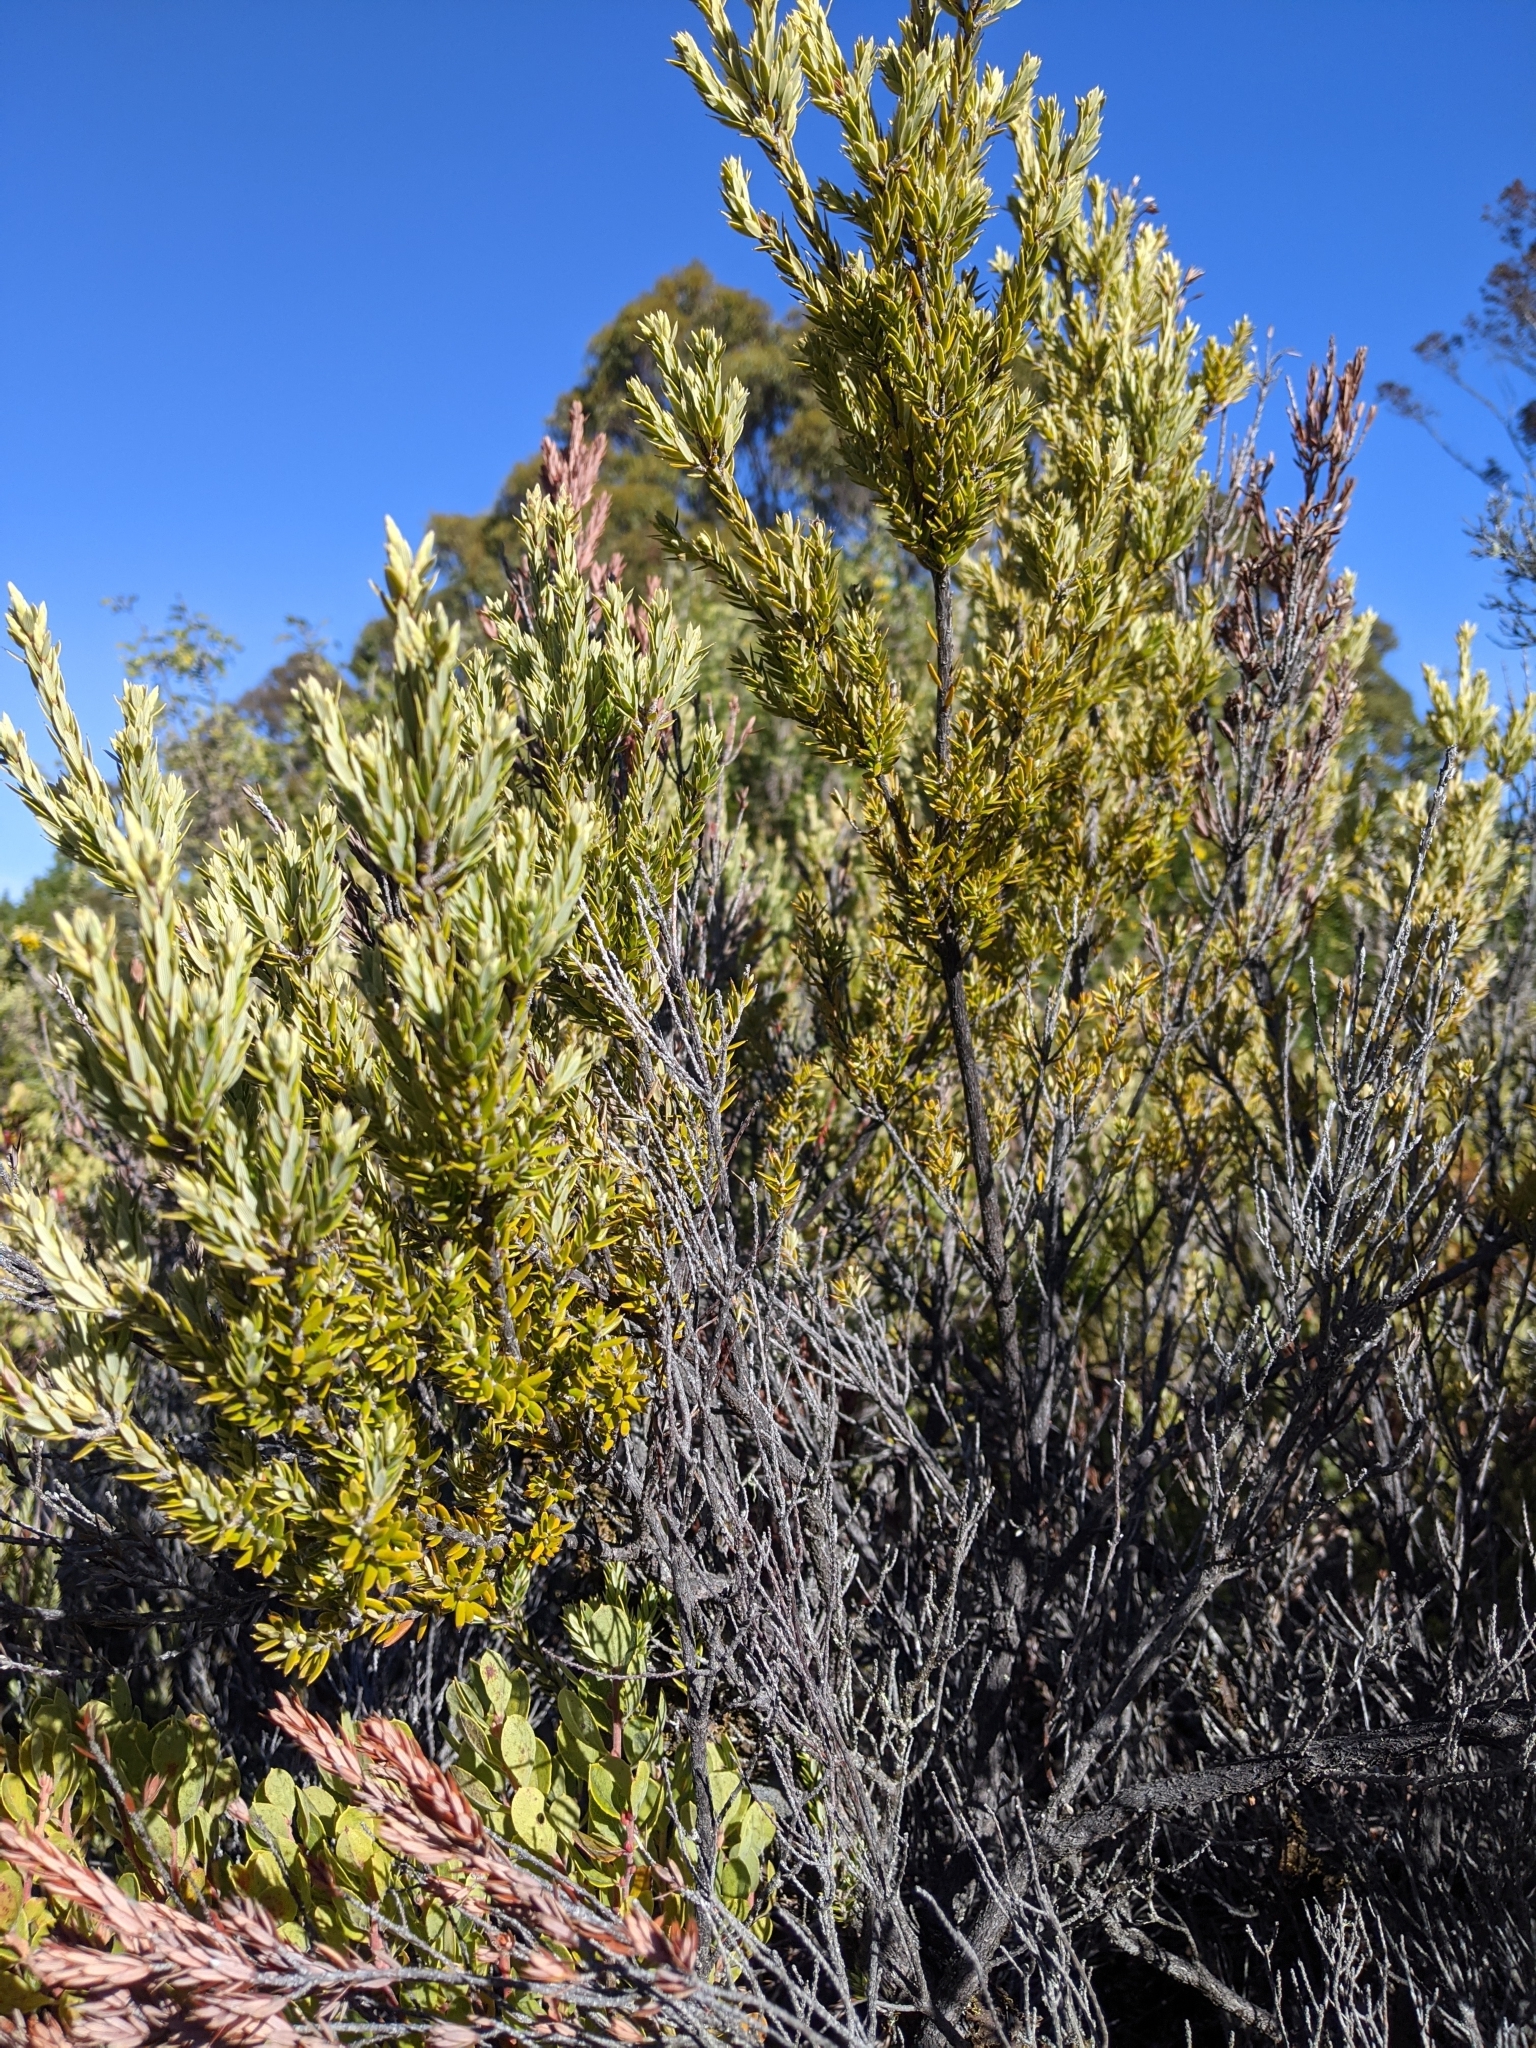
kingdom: Plantae
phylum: Tracheophyta
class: Magnoliopsida
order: Ericales
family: Ericaceae
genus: Leptecophylla
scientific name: Leptecophylla tameiameiae
